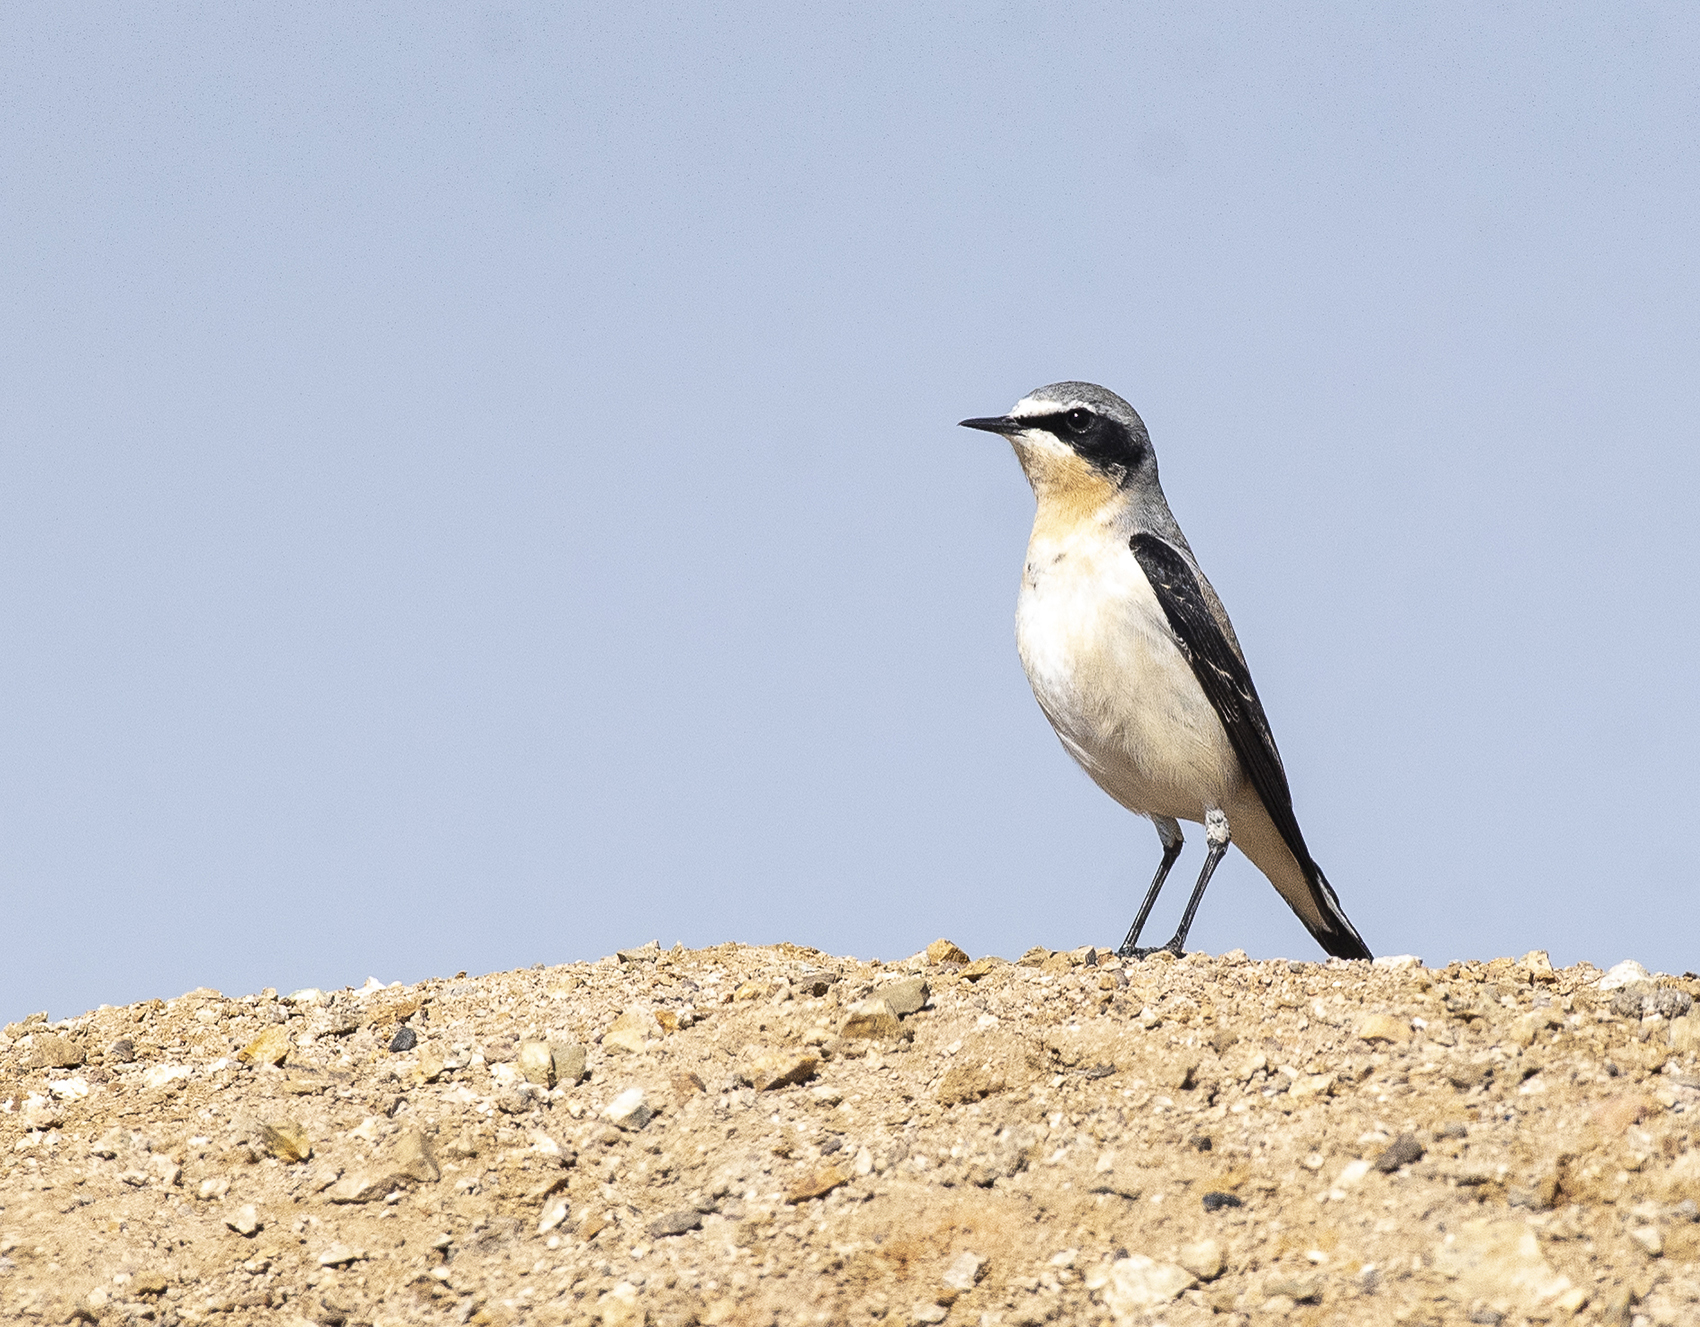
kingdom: Animalia
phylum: Chordata
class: Aves
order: Passeriformes
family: Muscicapidae
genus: Oenanthe
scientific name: Oenanthe oenanthe
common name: Northern wheatear
